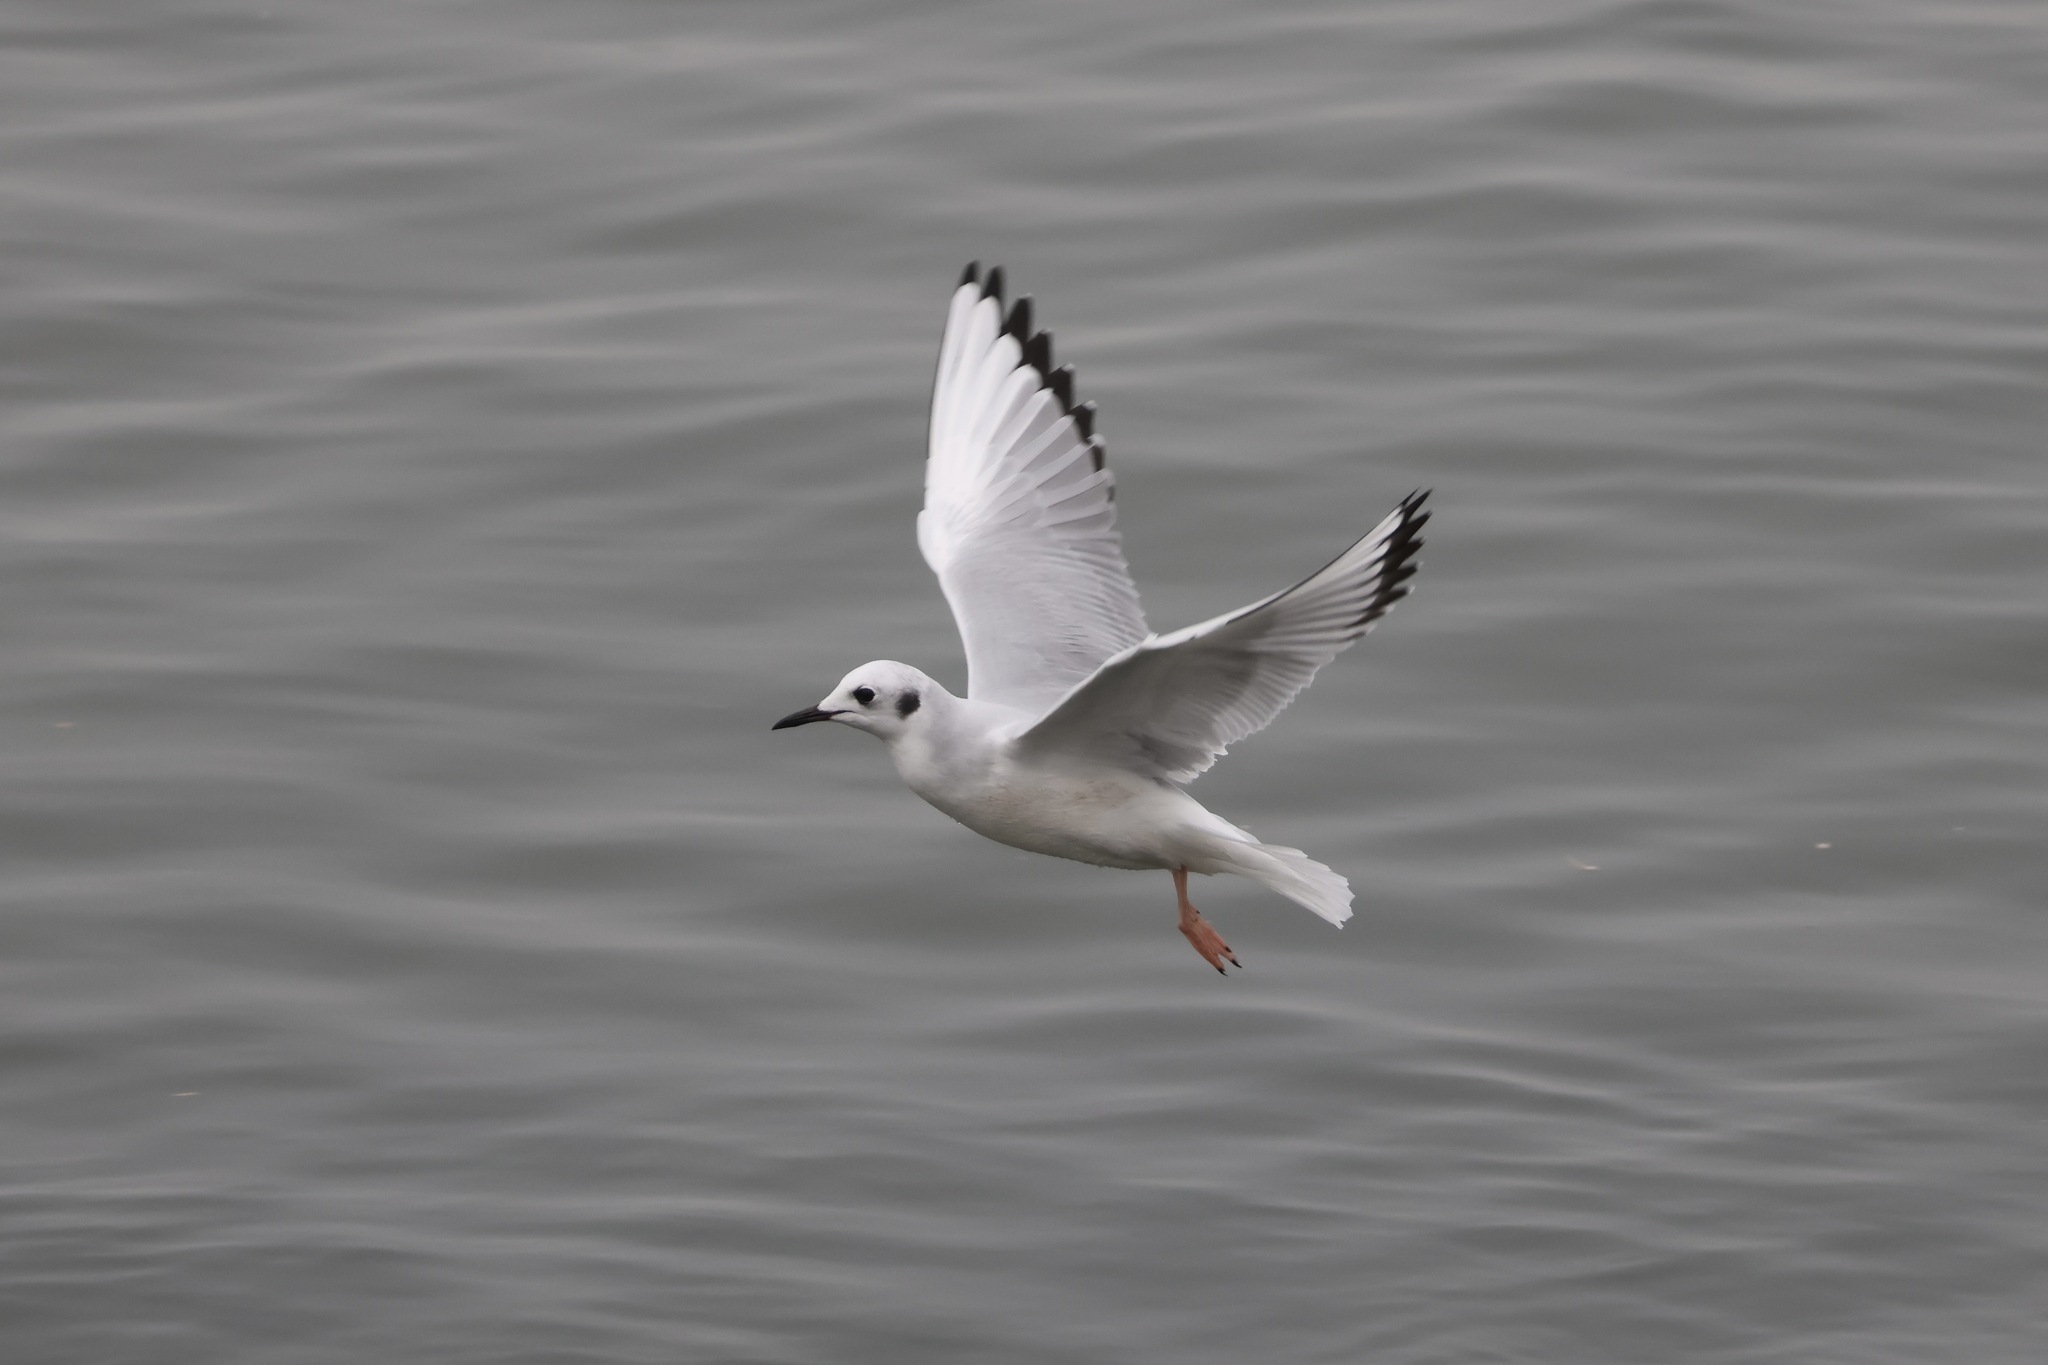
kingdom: Animalia
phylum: Chordata
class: Aves
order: Charadriiformes
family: Laridae
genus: Chroicocephalus
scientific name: Chroicocephalus philadelphia
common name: Bonaparte's gull
